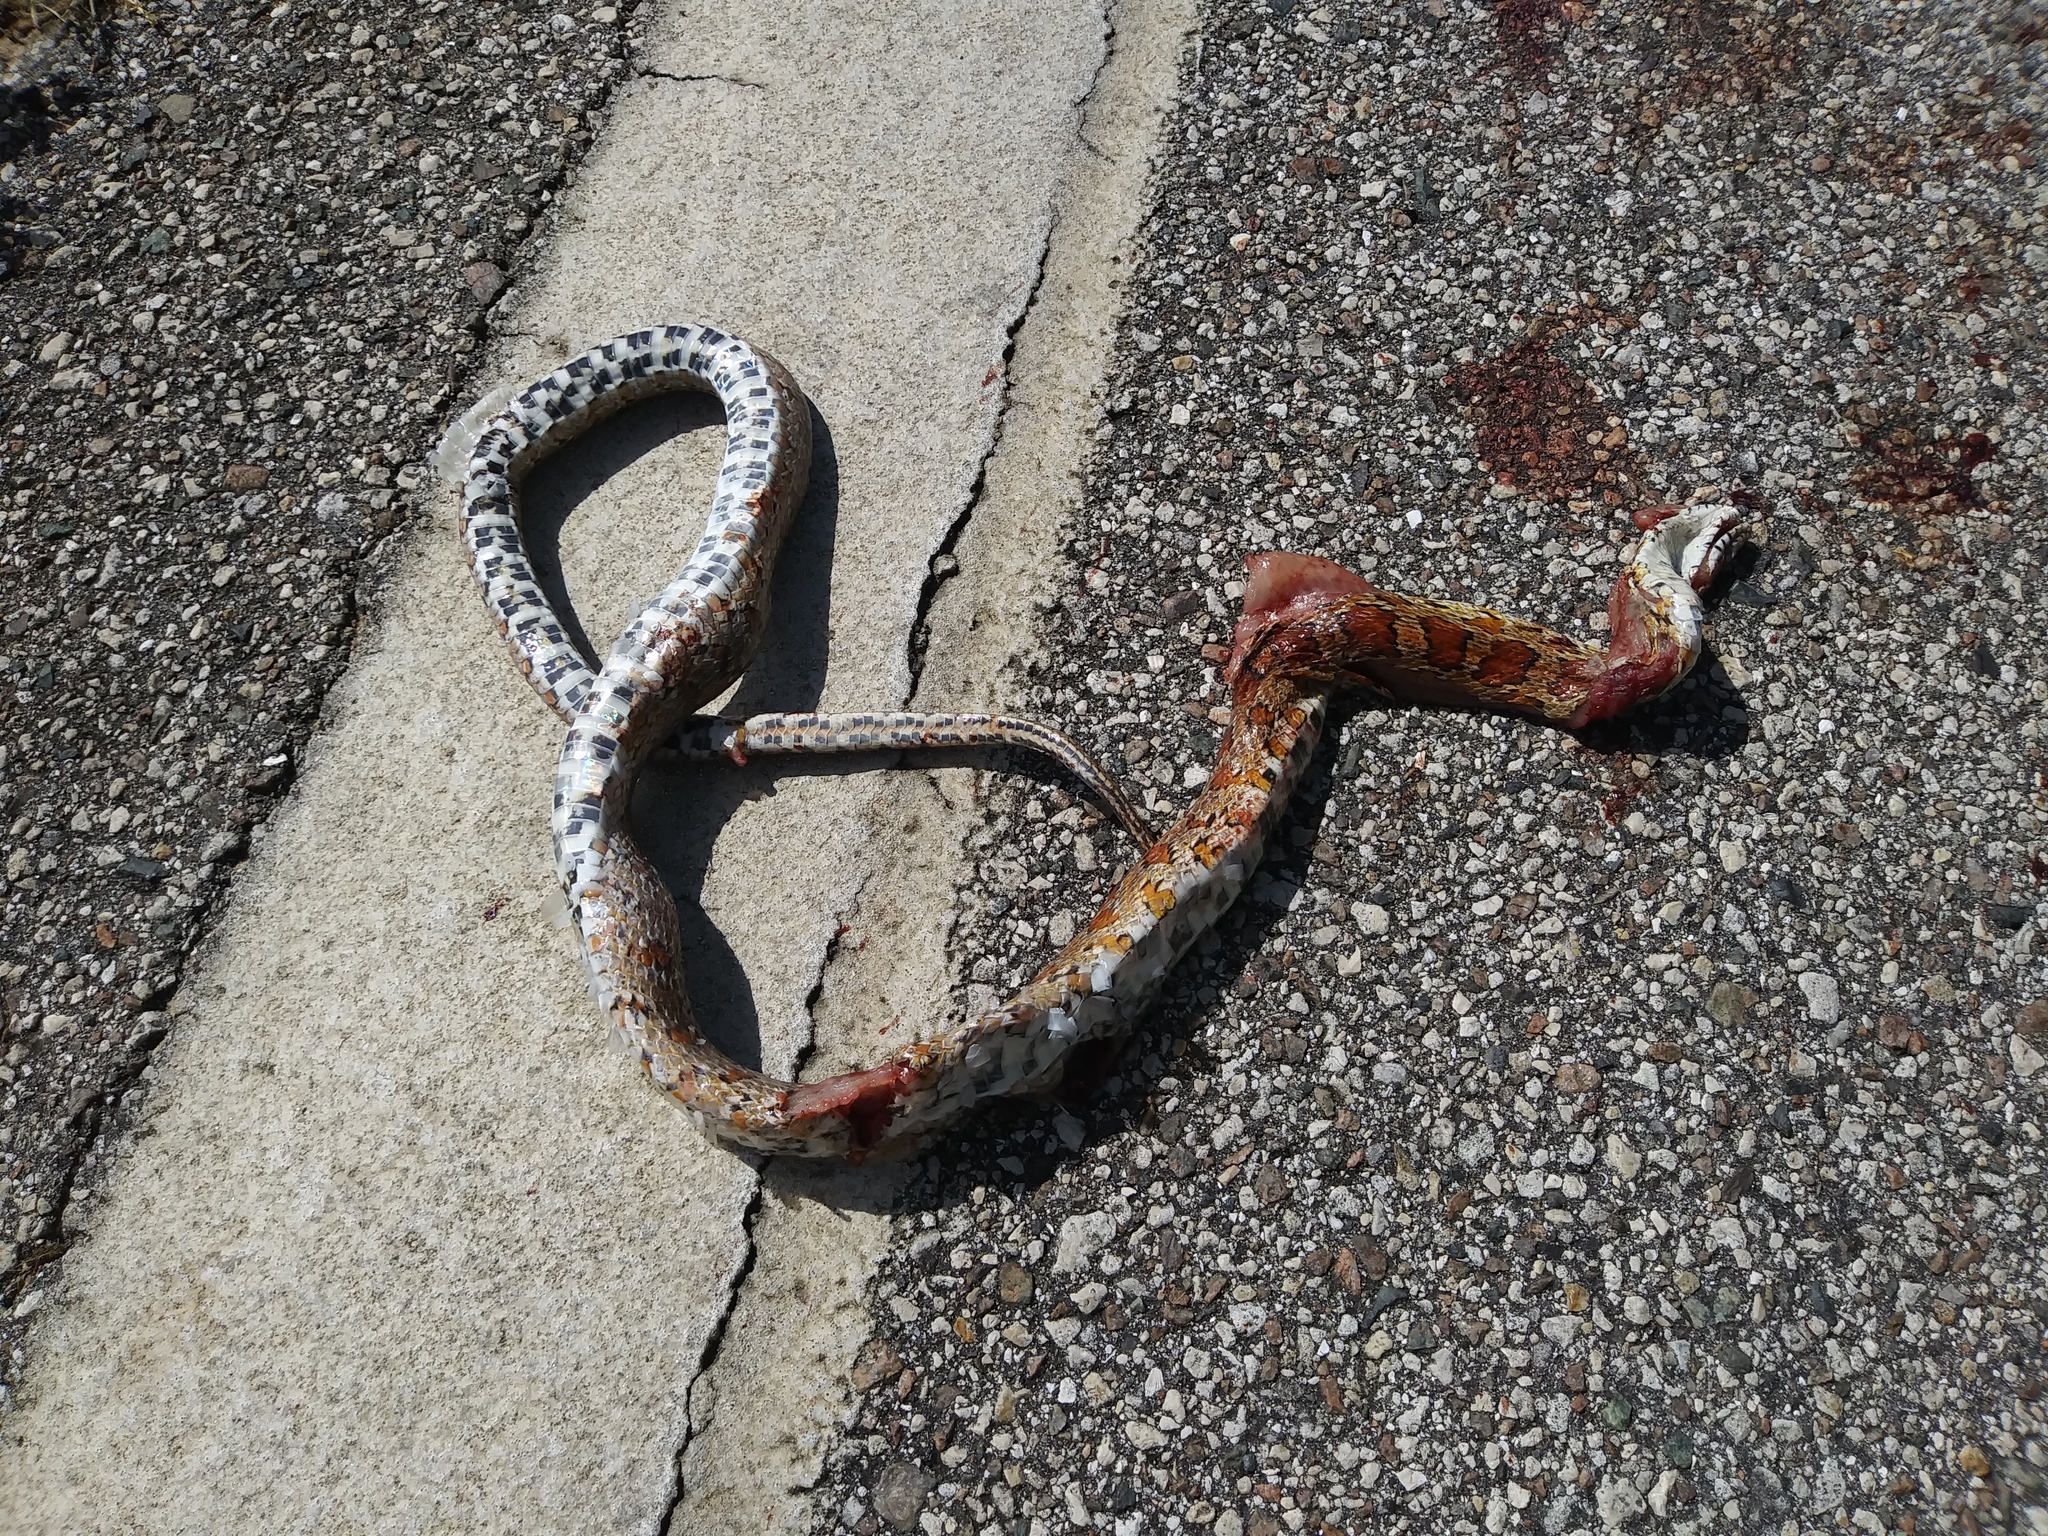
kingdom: Animalia
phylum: Chordata
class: Squamata
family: Colubridae
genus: Pantherophis
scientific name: Pantherophis guttatus
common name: Red cornsnake
